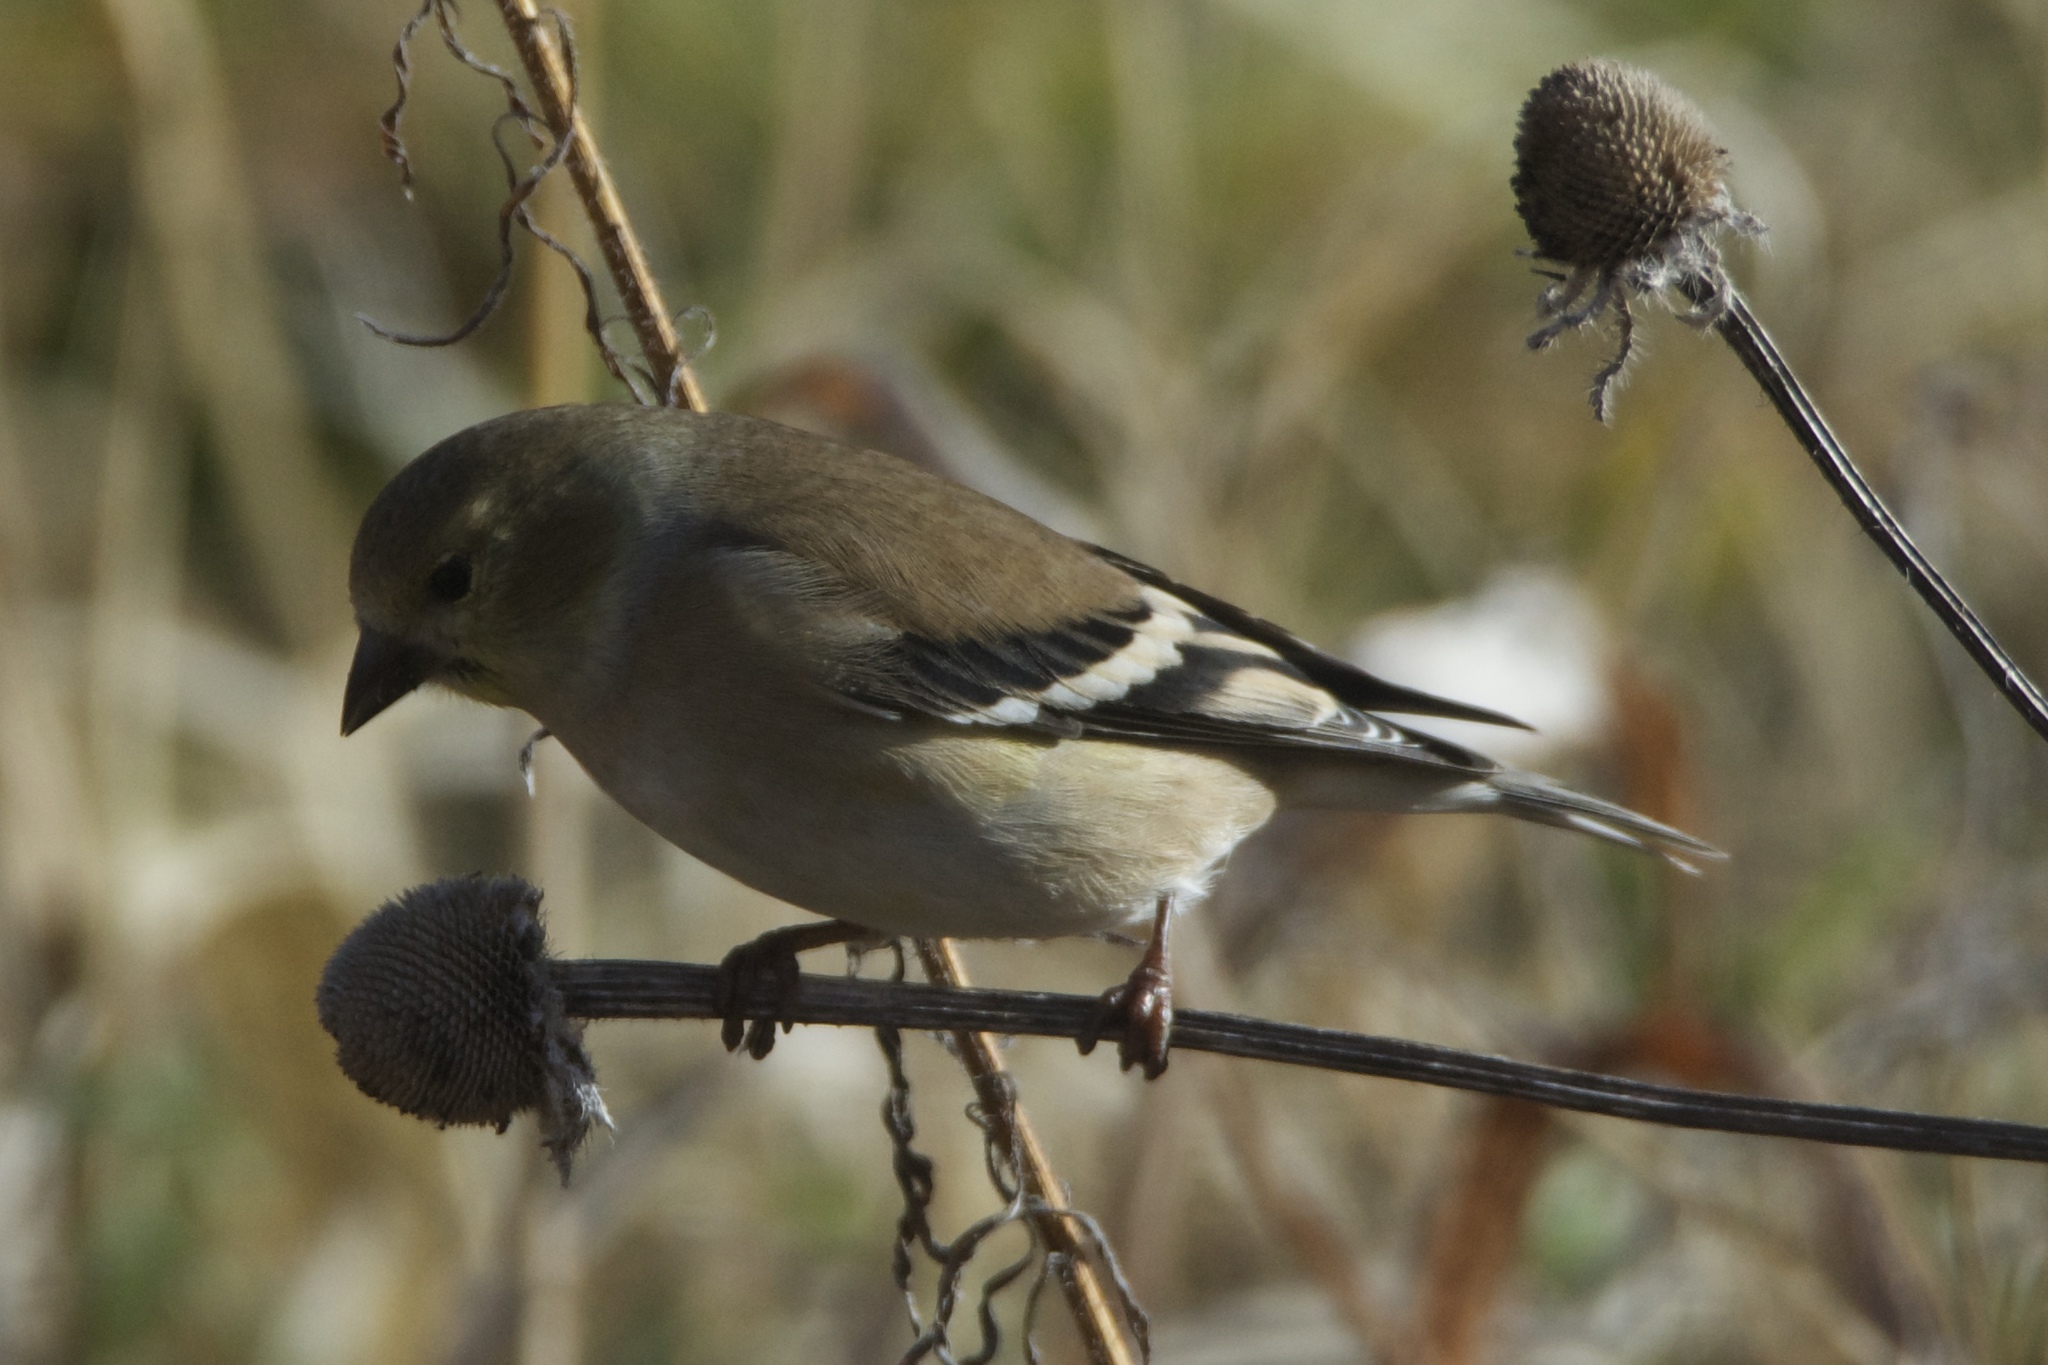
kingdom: Animalia
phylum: Chordata
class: Aves
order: Passeriformes
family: Fringillidae
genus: Spinus
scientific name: Spinus tristis
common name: American goldfinch
